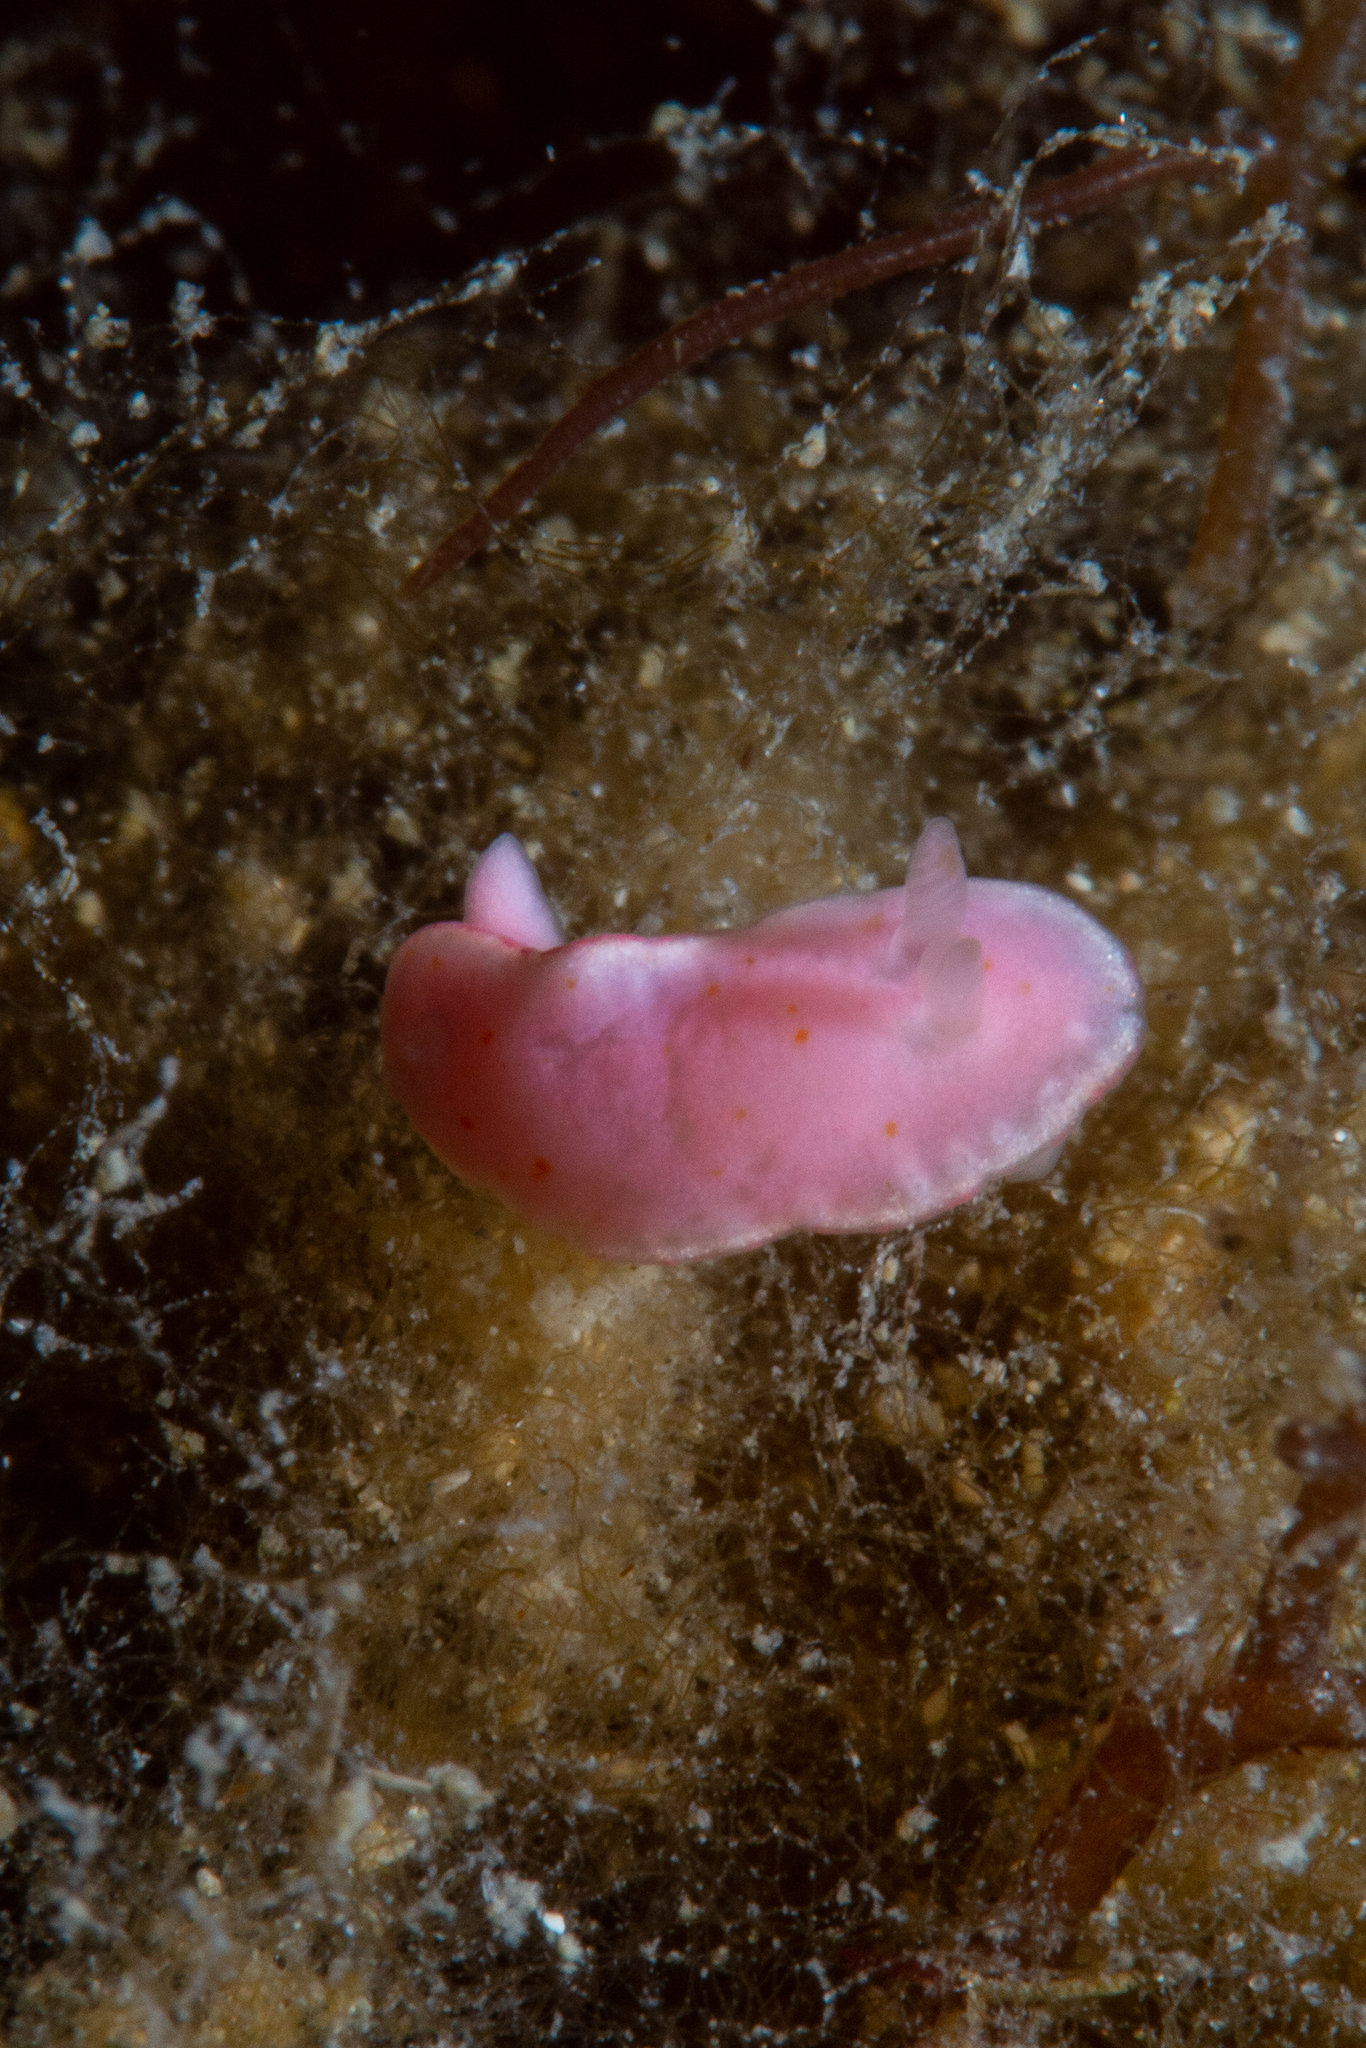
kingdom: Animalia
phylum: Mollusca
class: Gastropoda
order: Nudibranchia
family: Chromodorididae
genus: Verconia
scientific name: Verconia haliclona
